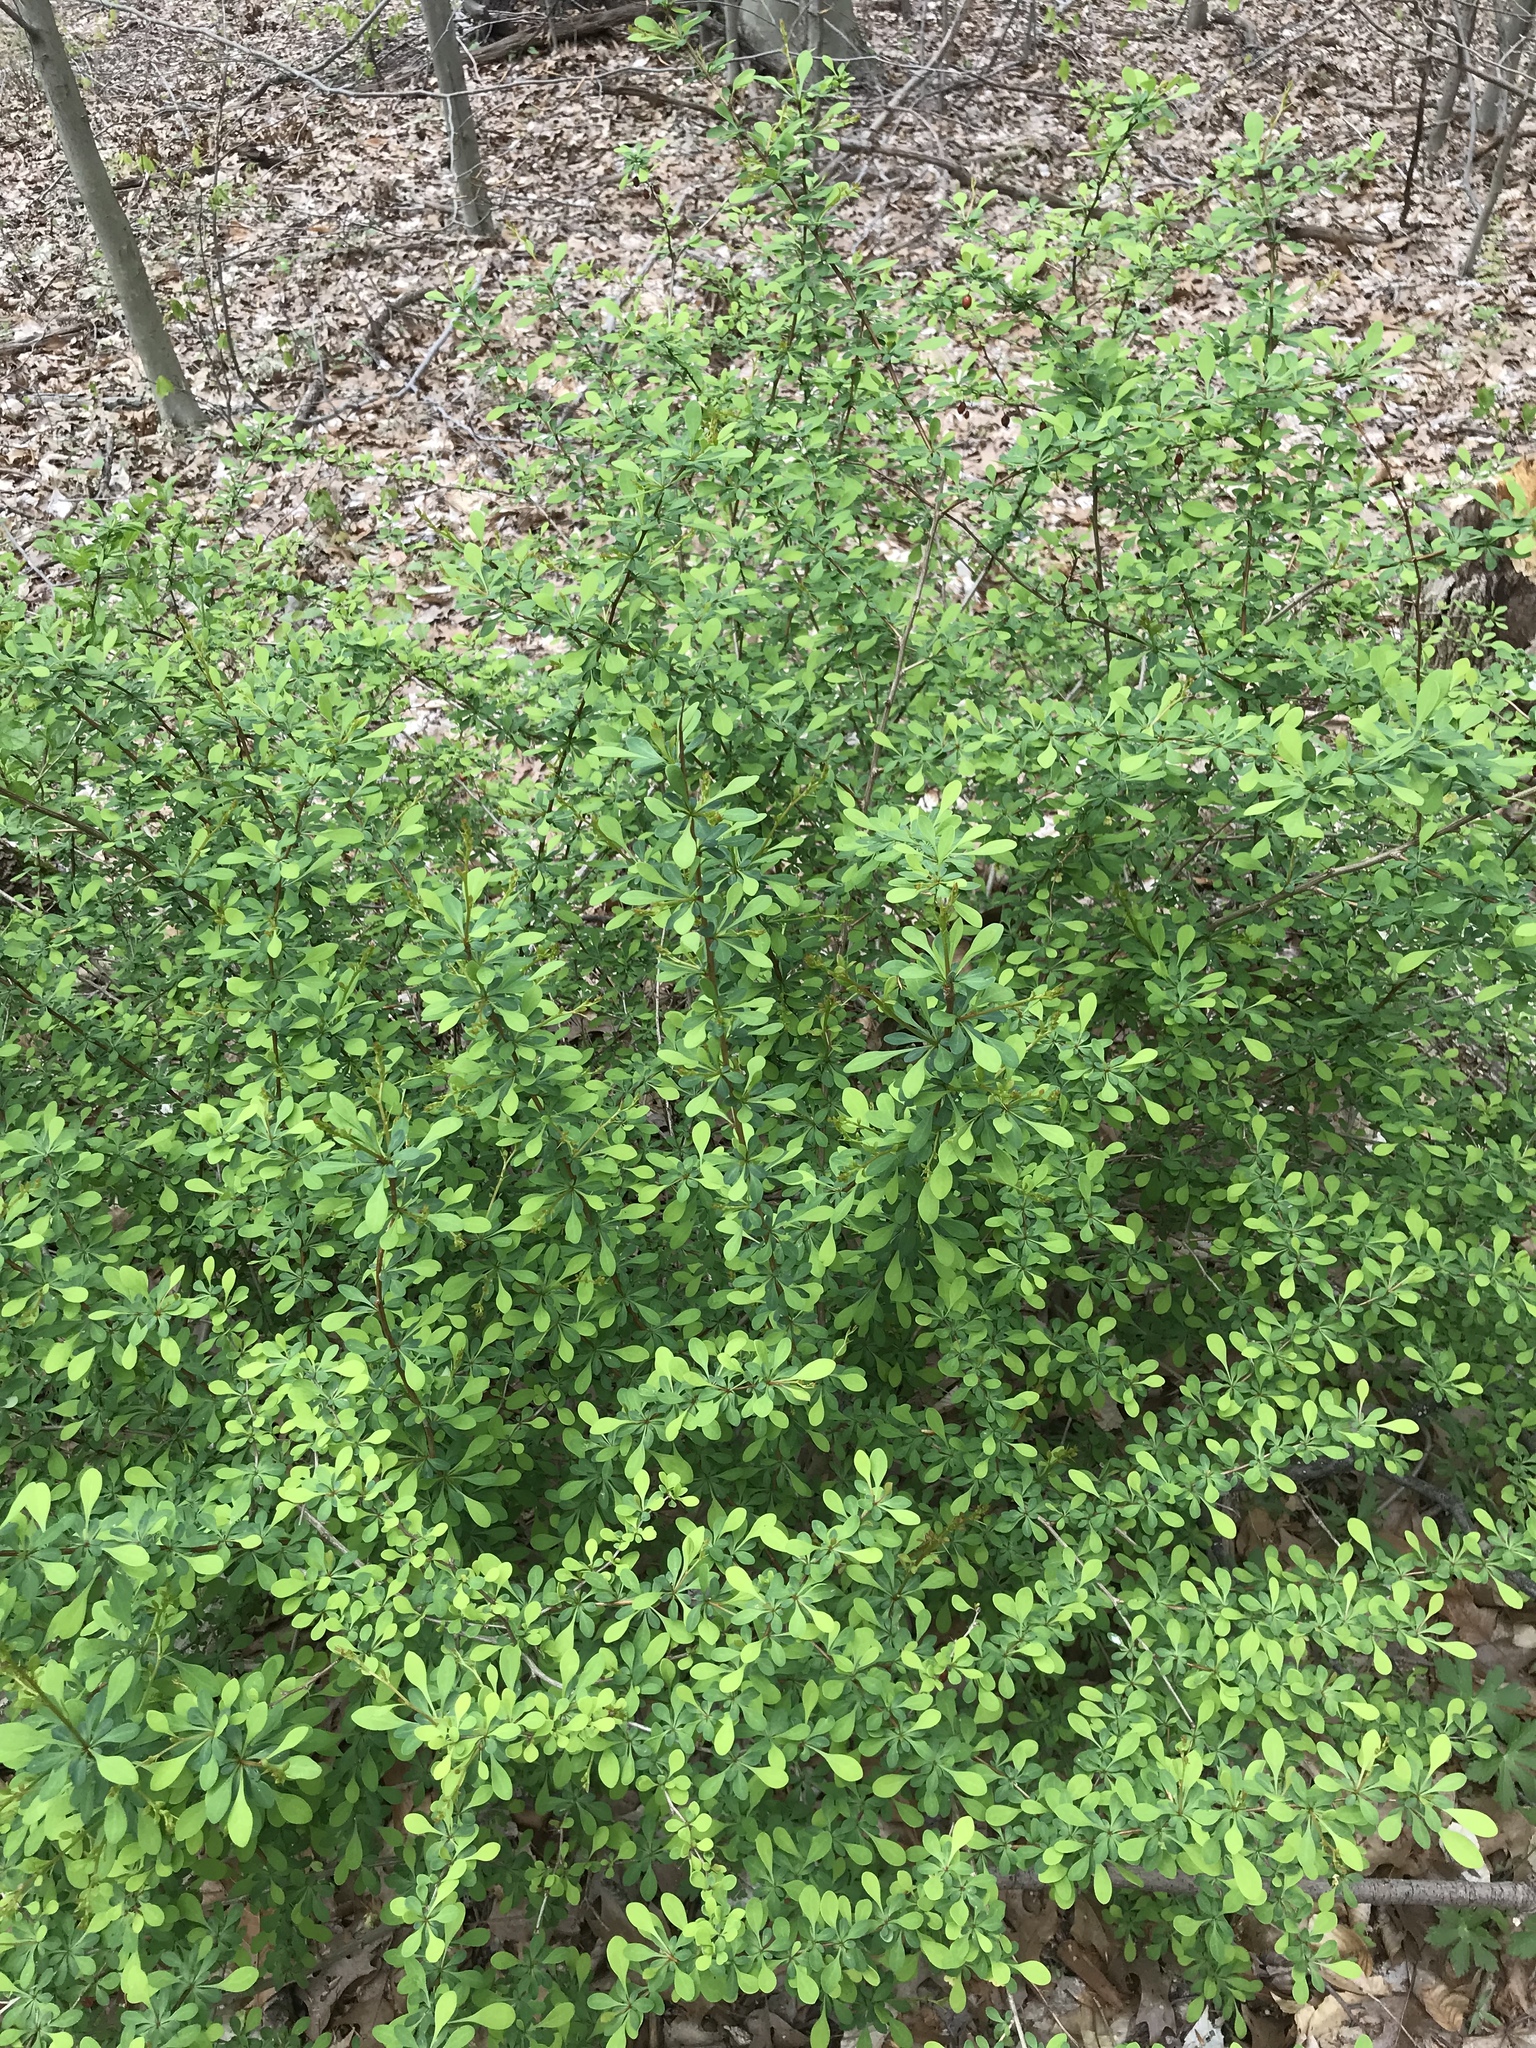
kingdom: Plantae
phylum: Tracheophyta
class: Magnoliopsida
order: Ranunculales
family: Berberidaceae
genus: Berberis
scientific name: Berberis thunbergii
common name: Japanese barberry
